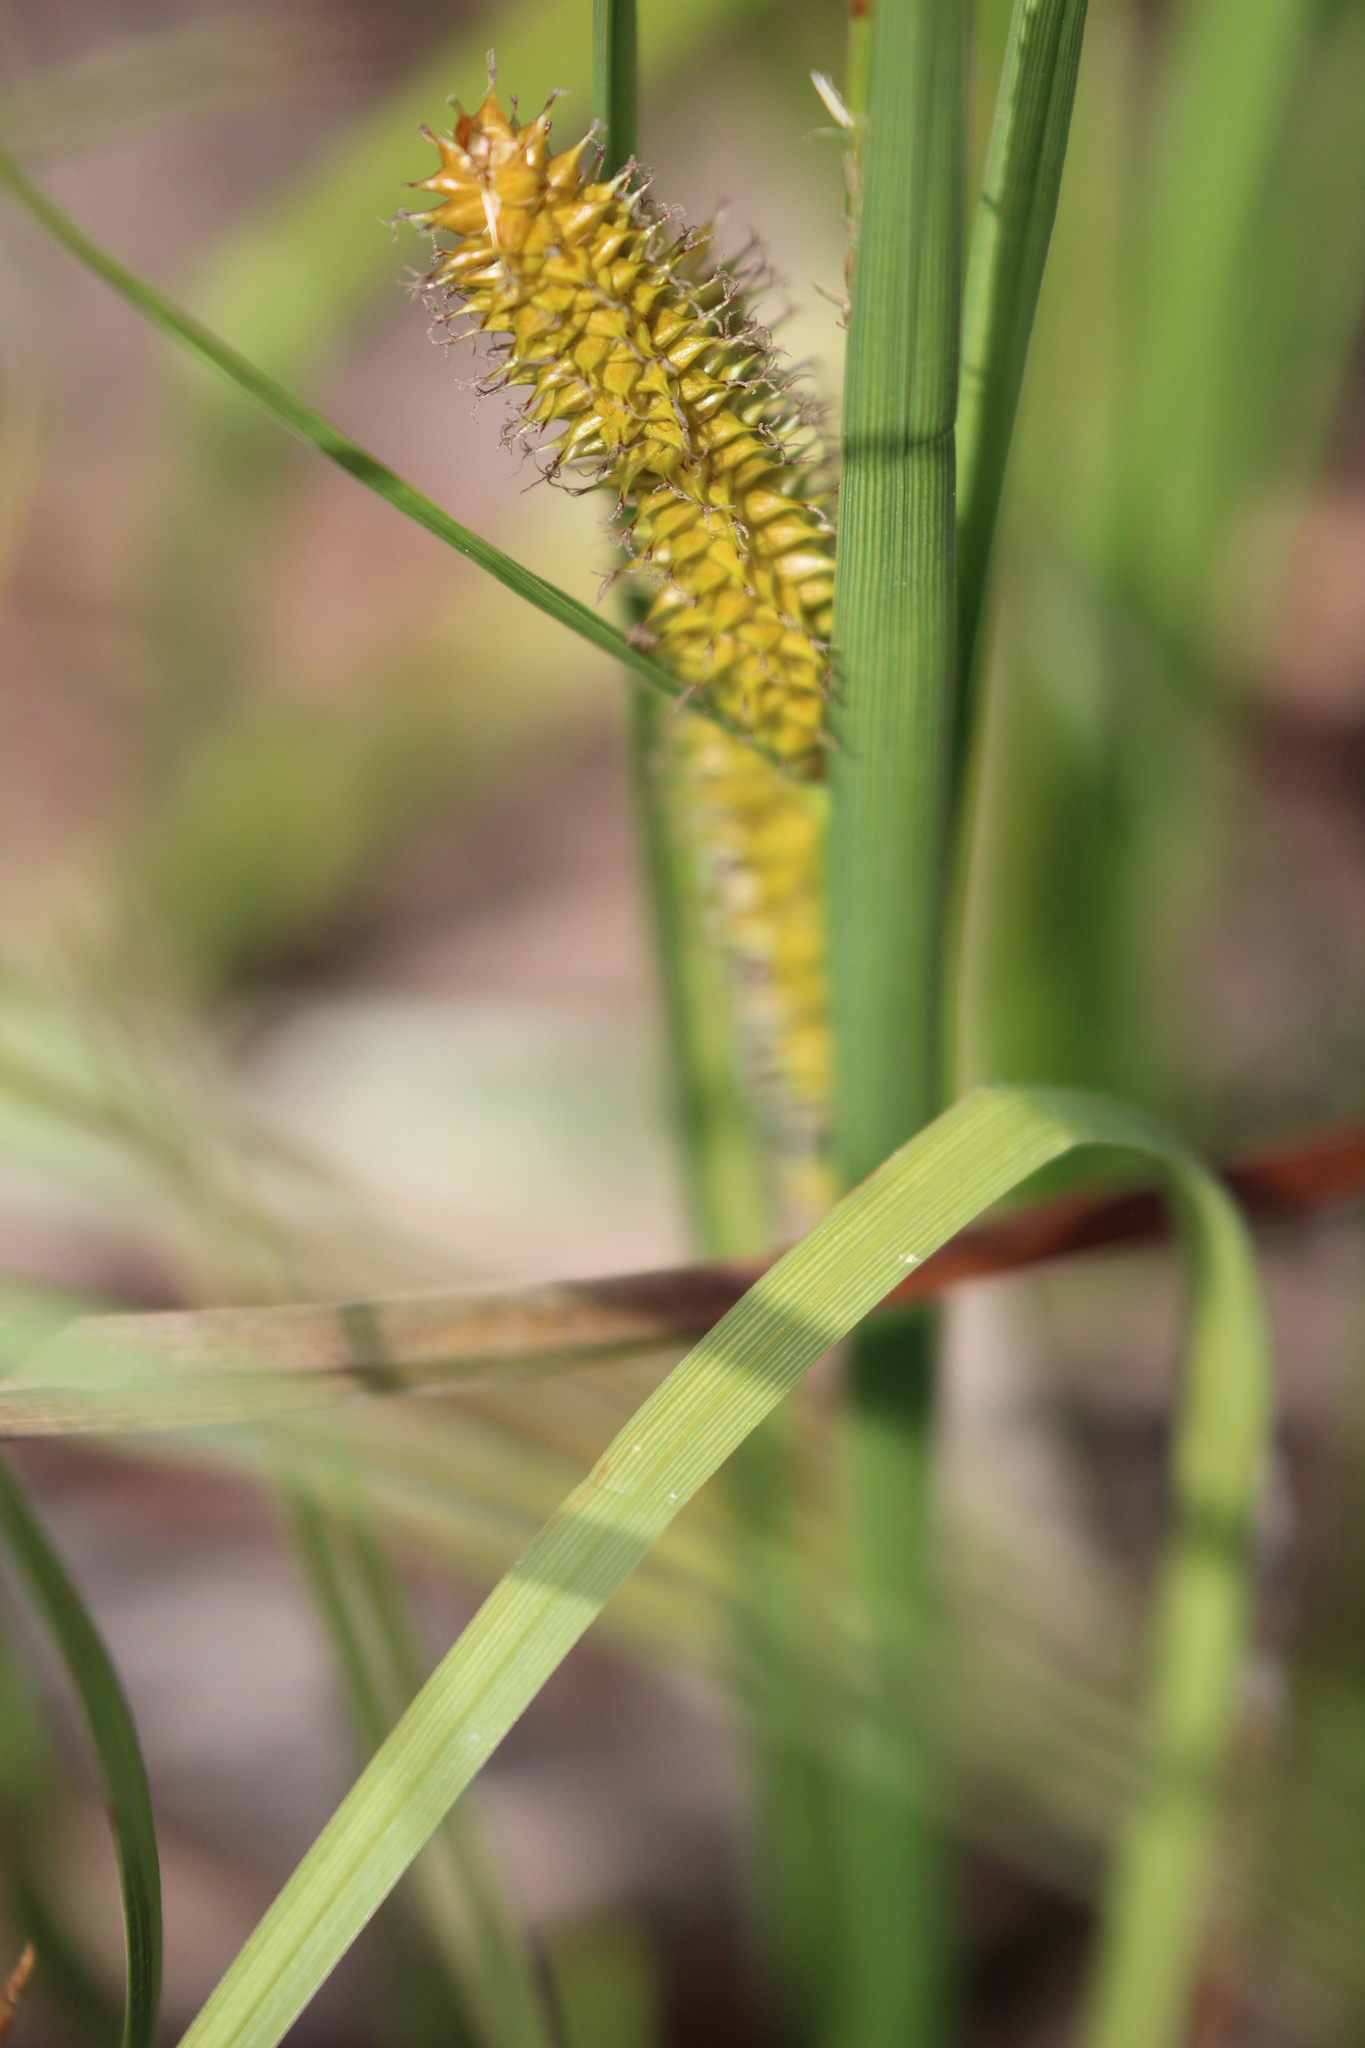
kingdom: Plantae
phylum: Tracheophyta
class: Liliopsida
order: Poales
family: Cyperaceae
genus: Carex
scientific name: Carex utriculata
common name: Beaked sedge
